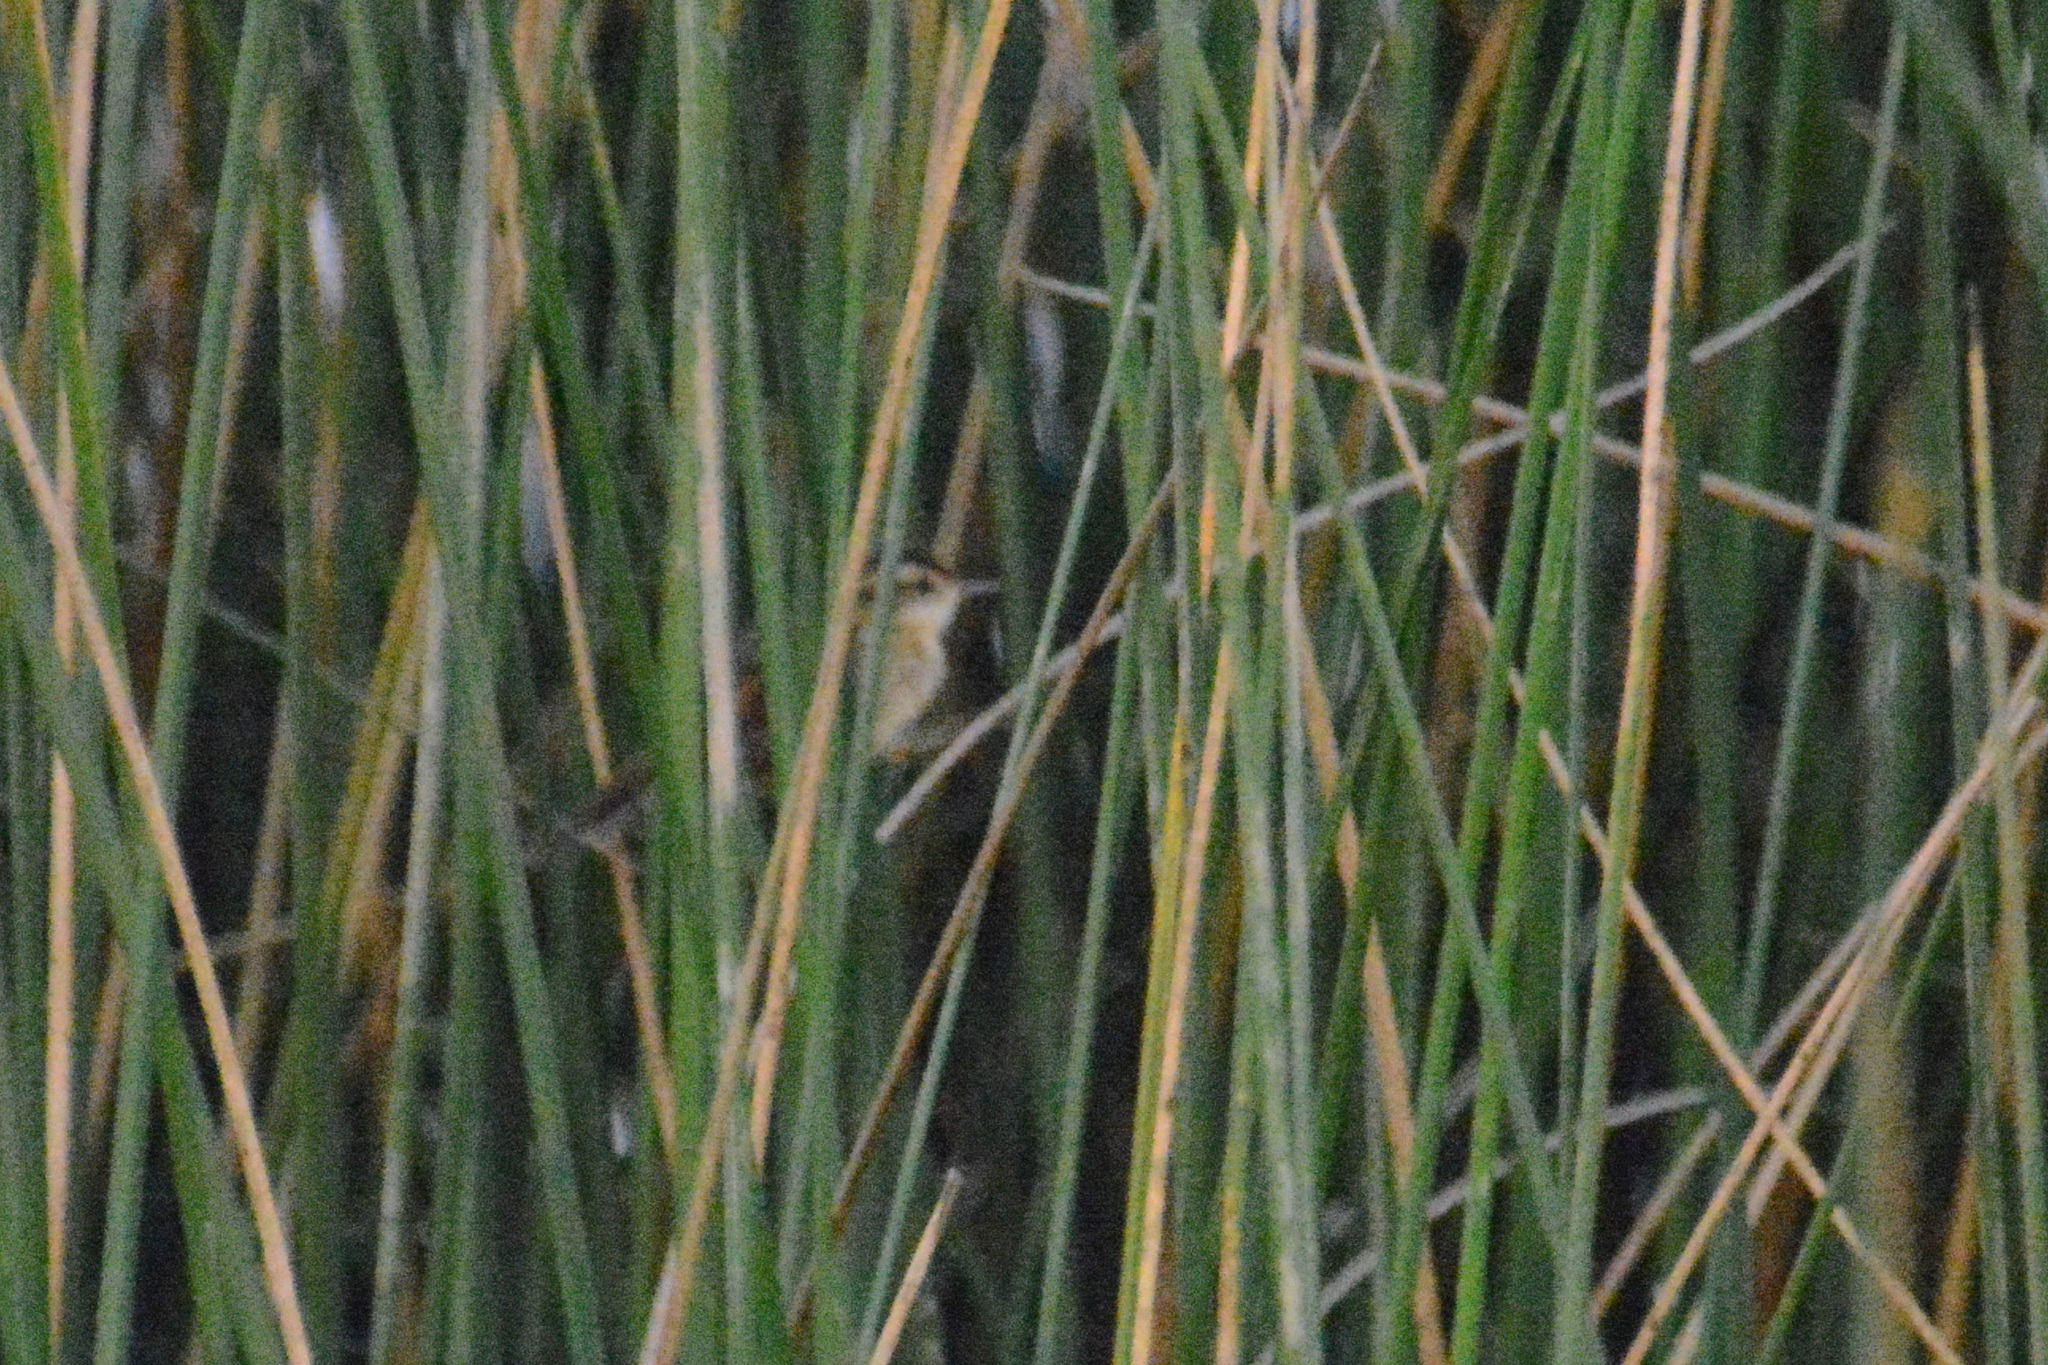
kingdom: Animalia
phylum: Chordata
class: Aves
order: Passeriformes
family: Furnariidae
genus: Phleocryptes
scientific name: Phleocryptes melanops
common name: Wren-like rushbird
